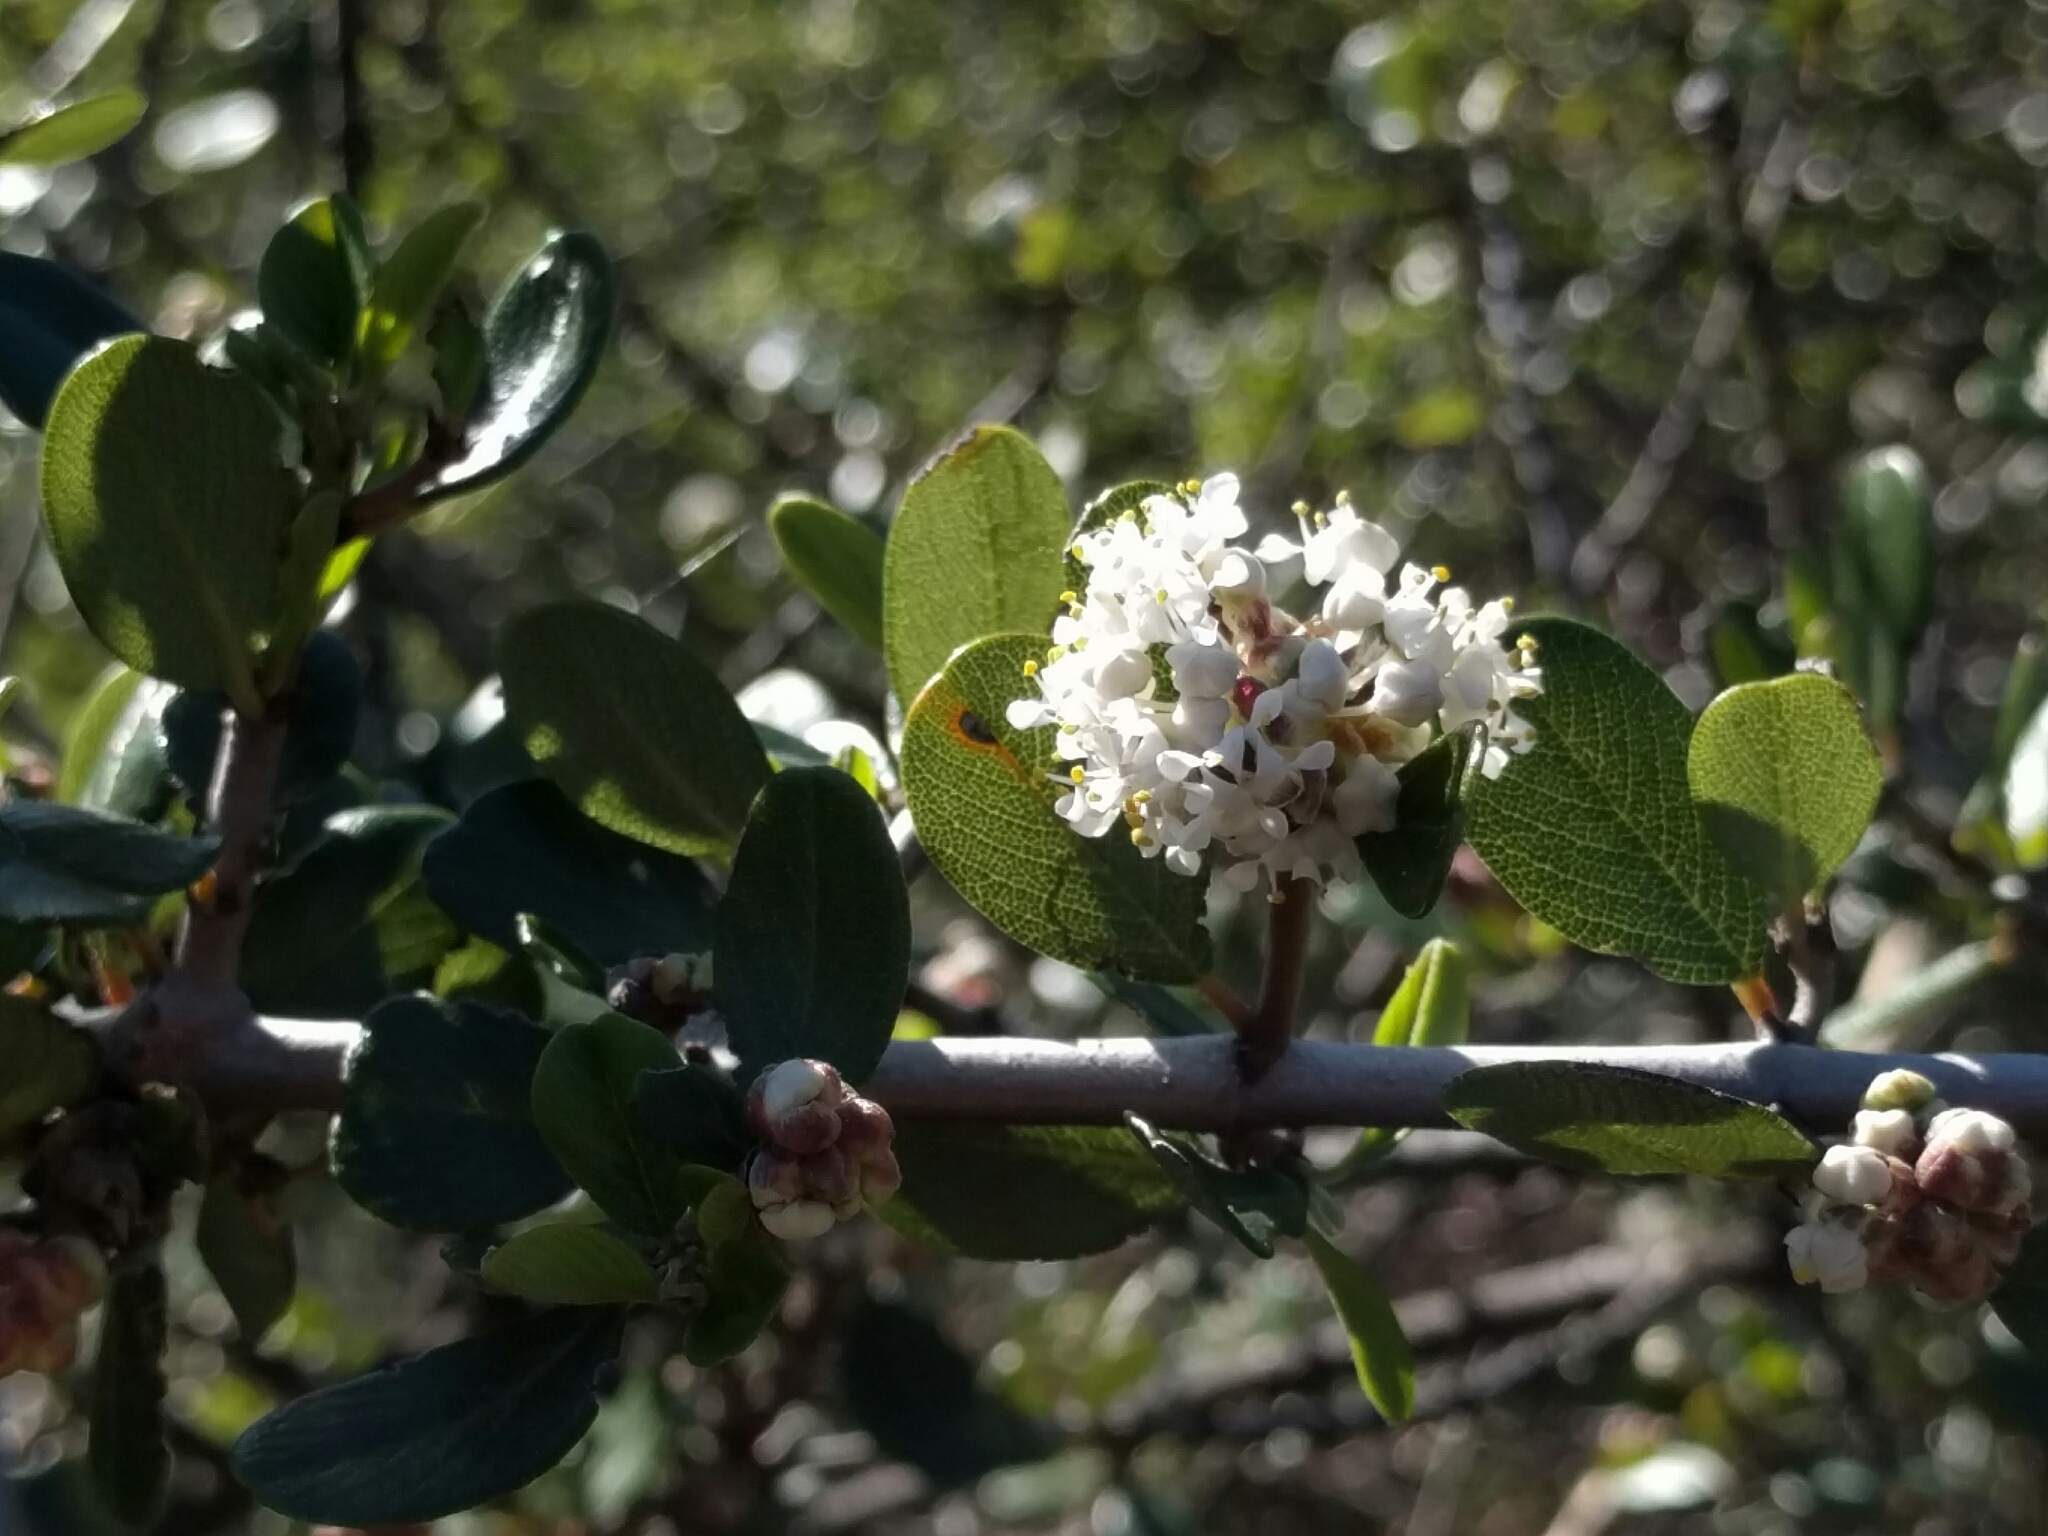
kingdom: Plantae
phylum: Tracheophyta
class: Magnoliopsida
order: Rosales
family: Rhamnaceae
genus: Ceanothus
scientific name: Ceanothus cuneatus
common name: Cuneate ceanothus
